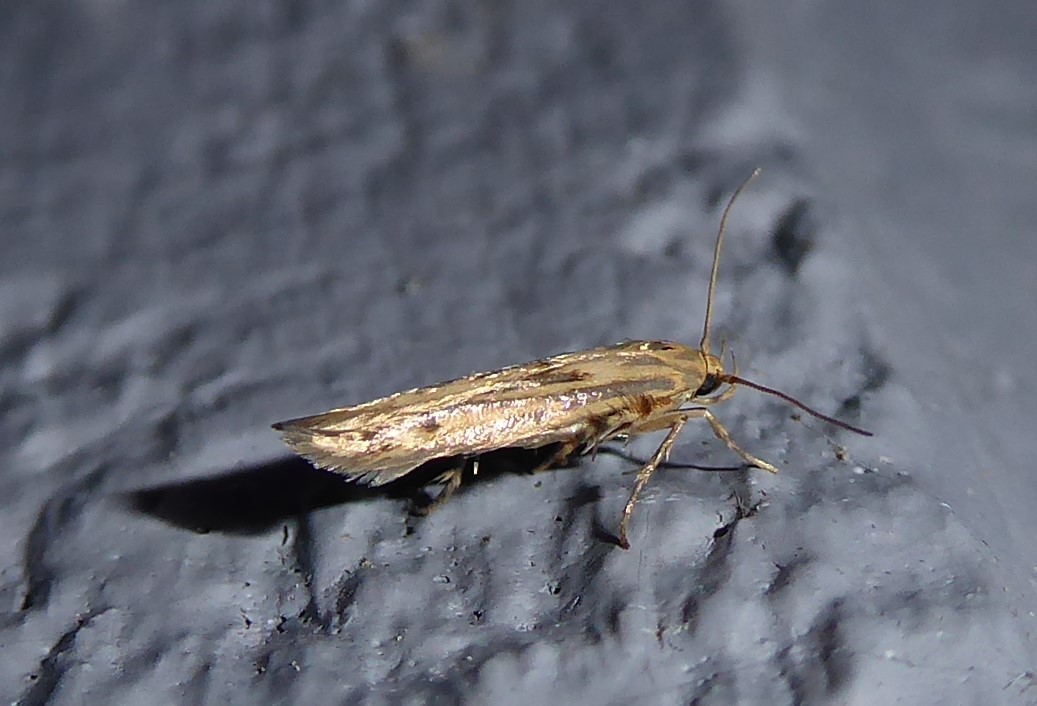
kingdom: Animalia
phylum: Arthropoda
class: Insecta
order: Lepidoptera
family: Stathmopodidae
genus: Stathmopoda
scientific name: Stathmopoda plumbiflua
